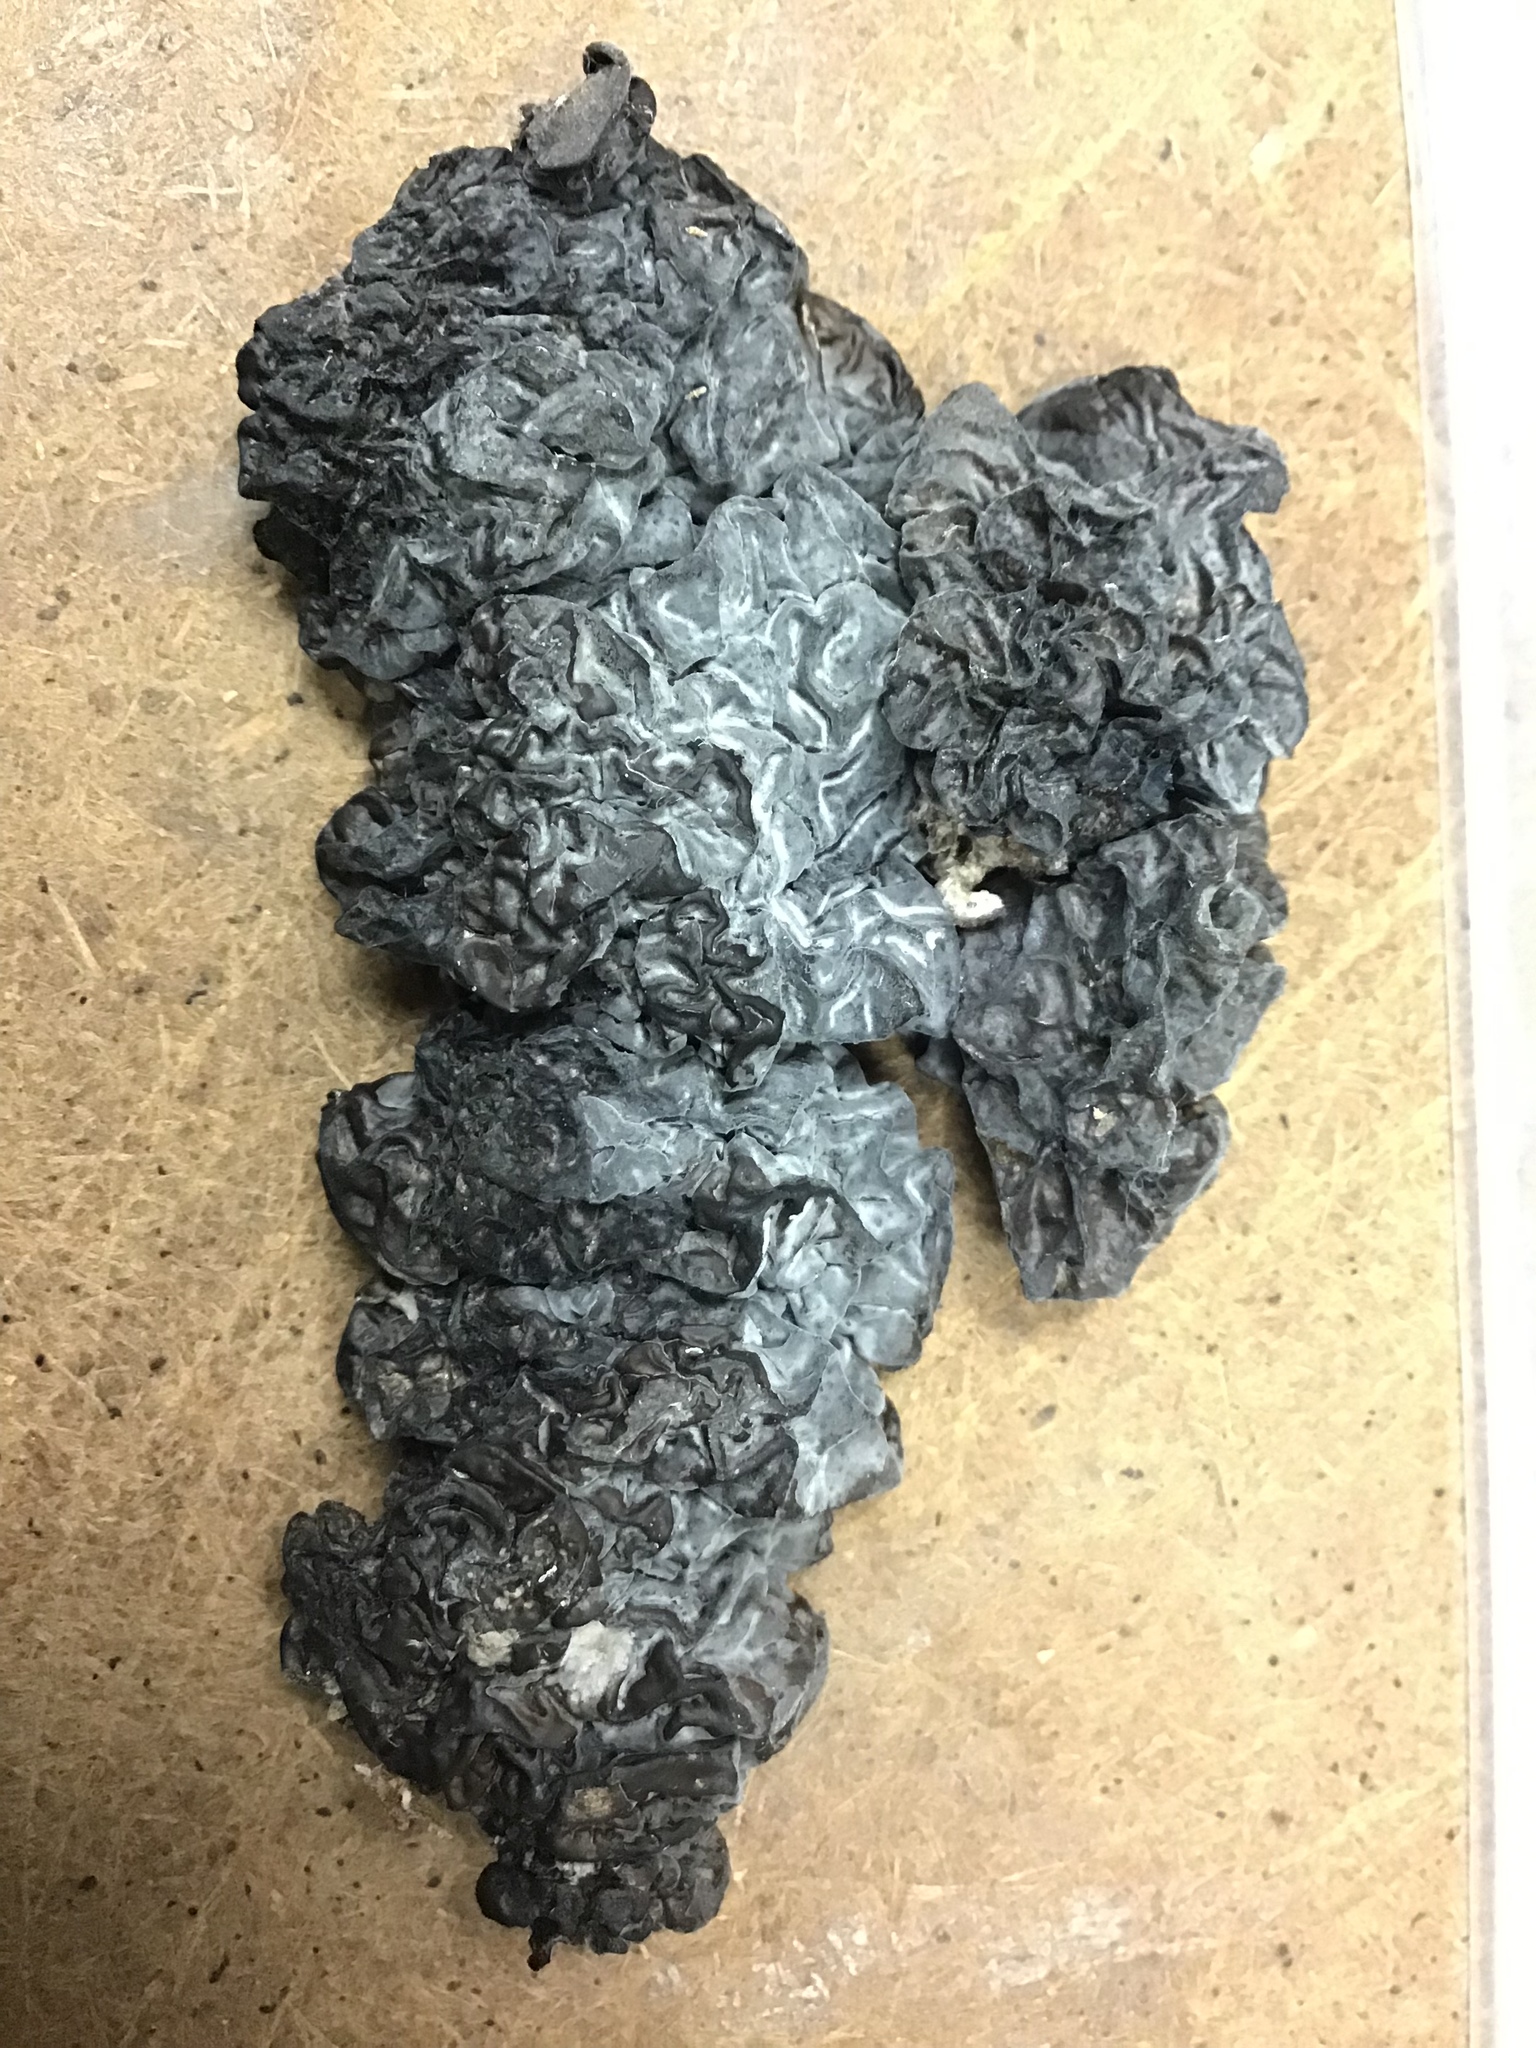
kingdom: Fungi
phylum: Basidiomycota
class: Agaricomycetes
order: Auriculariales
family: Auriculariaceae
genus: Exidia
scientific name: Exidia glandulosa
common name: Witches' butter
